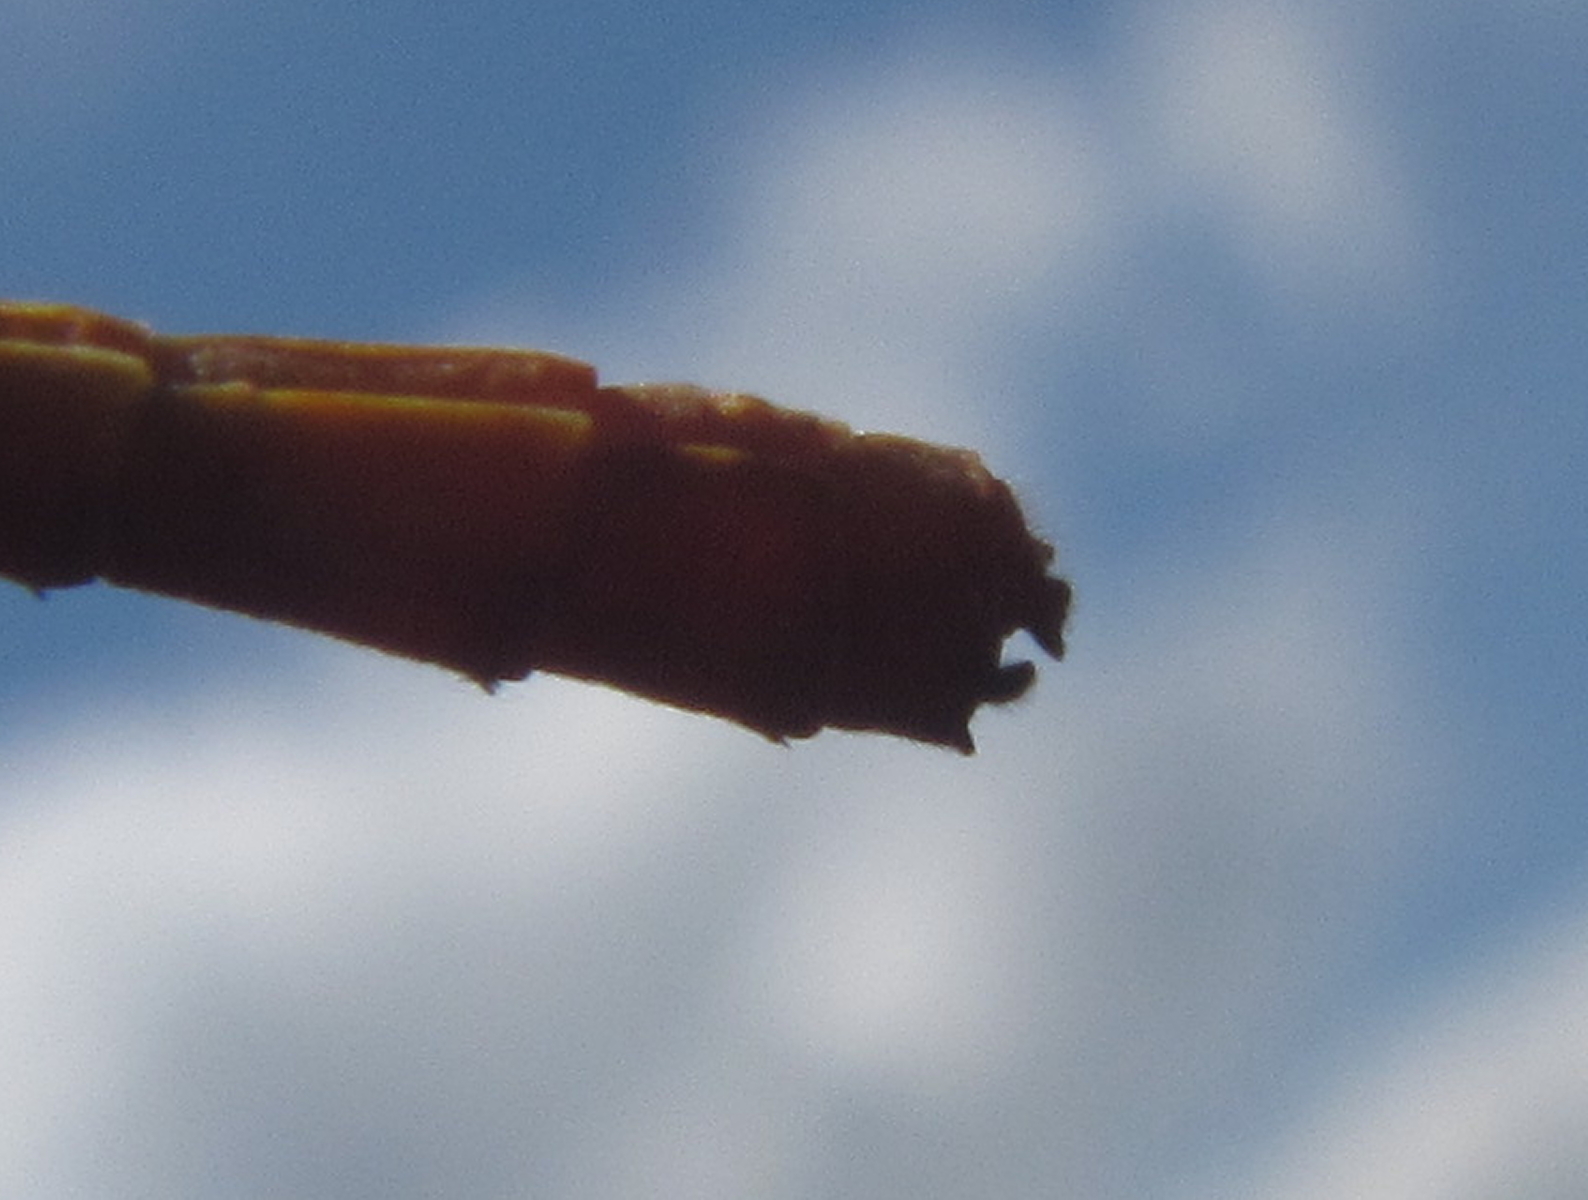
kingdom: Animalia
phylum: Arthropoda
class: Insecta
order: Odonata
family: Coenagrionidae
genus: Ceriagrion
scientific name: Ceriagrion glabrum
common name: Common pond damsel
